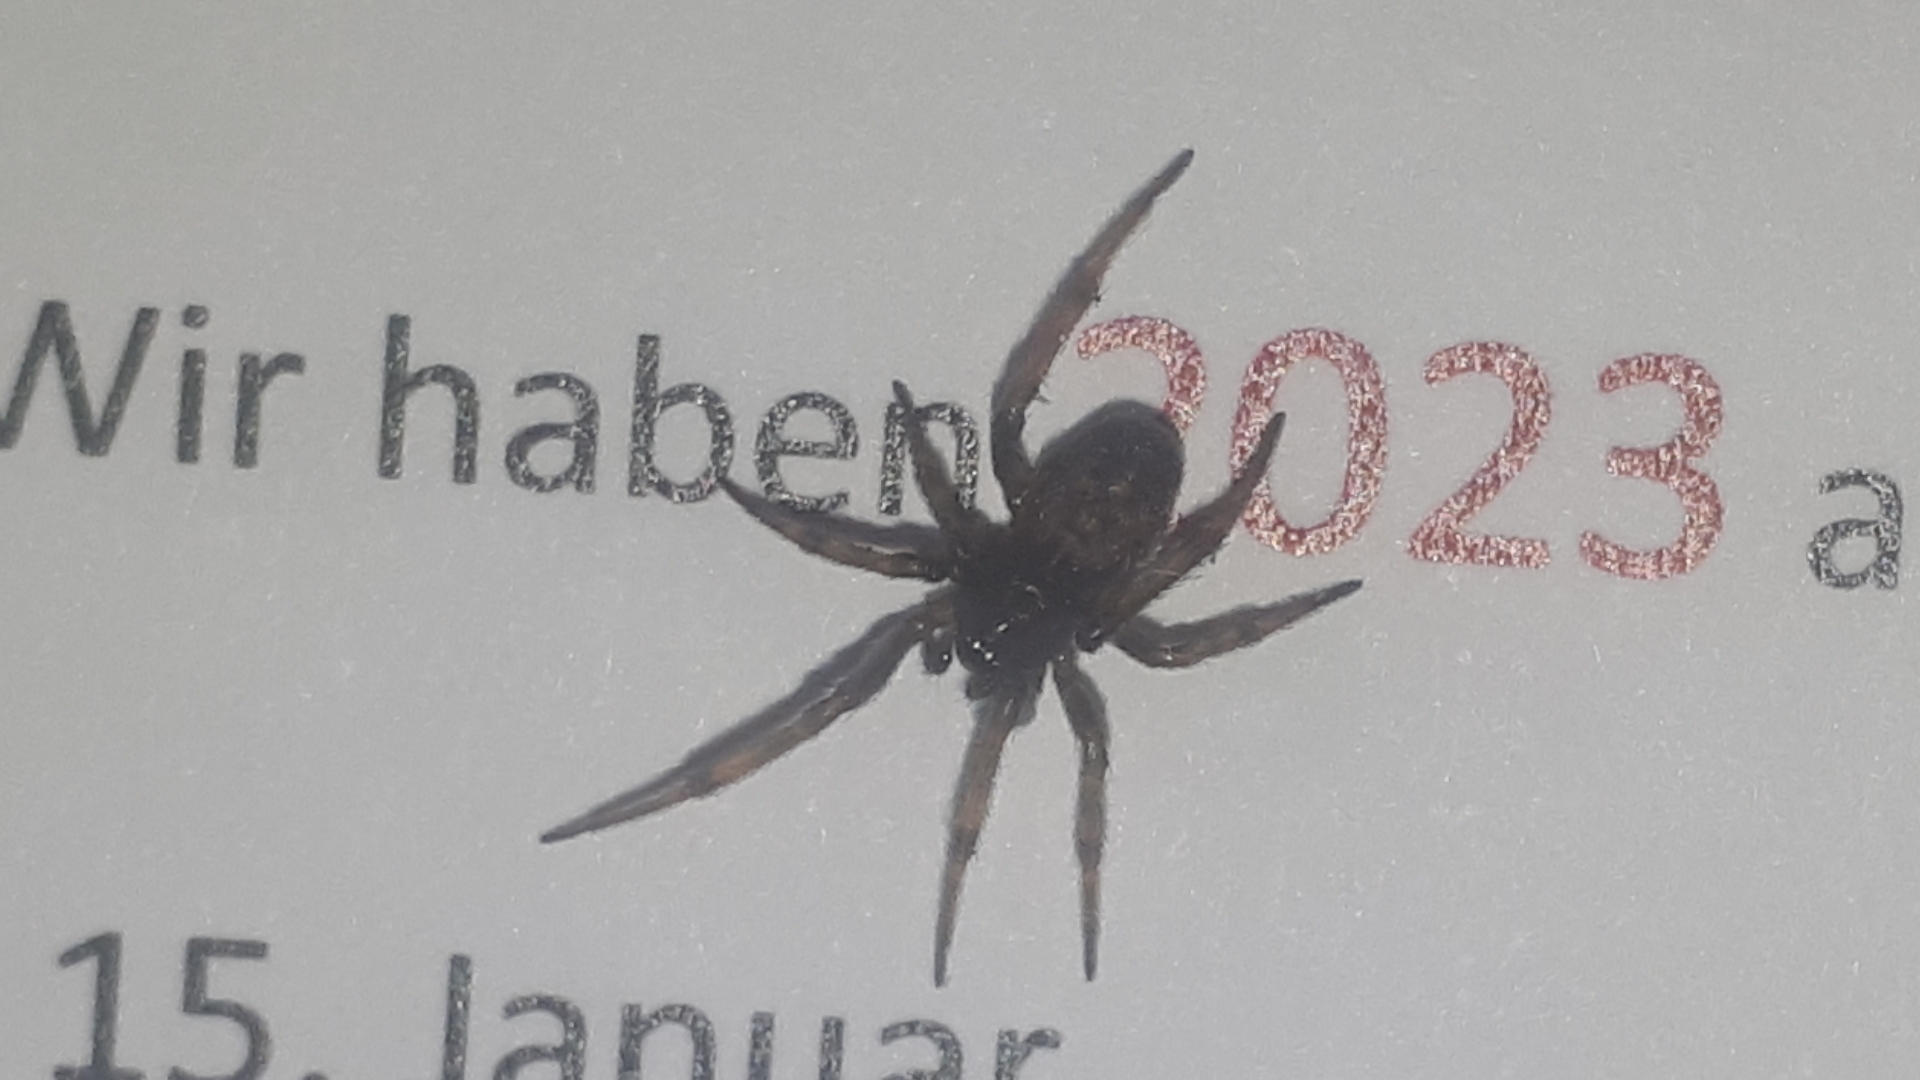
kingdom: Animalia
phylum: Arthropoda
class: Arachnida
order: Araneae
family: Theridiidae
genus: Steatoda
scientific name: Steatoda bipunctata
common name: False widow
